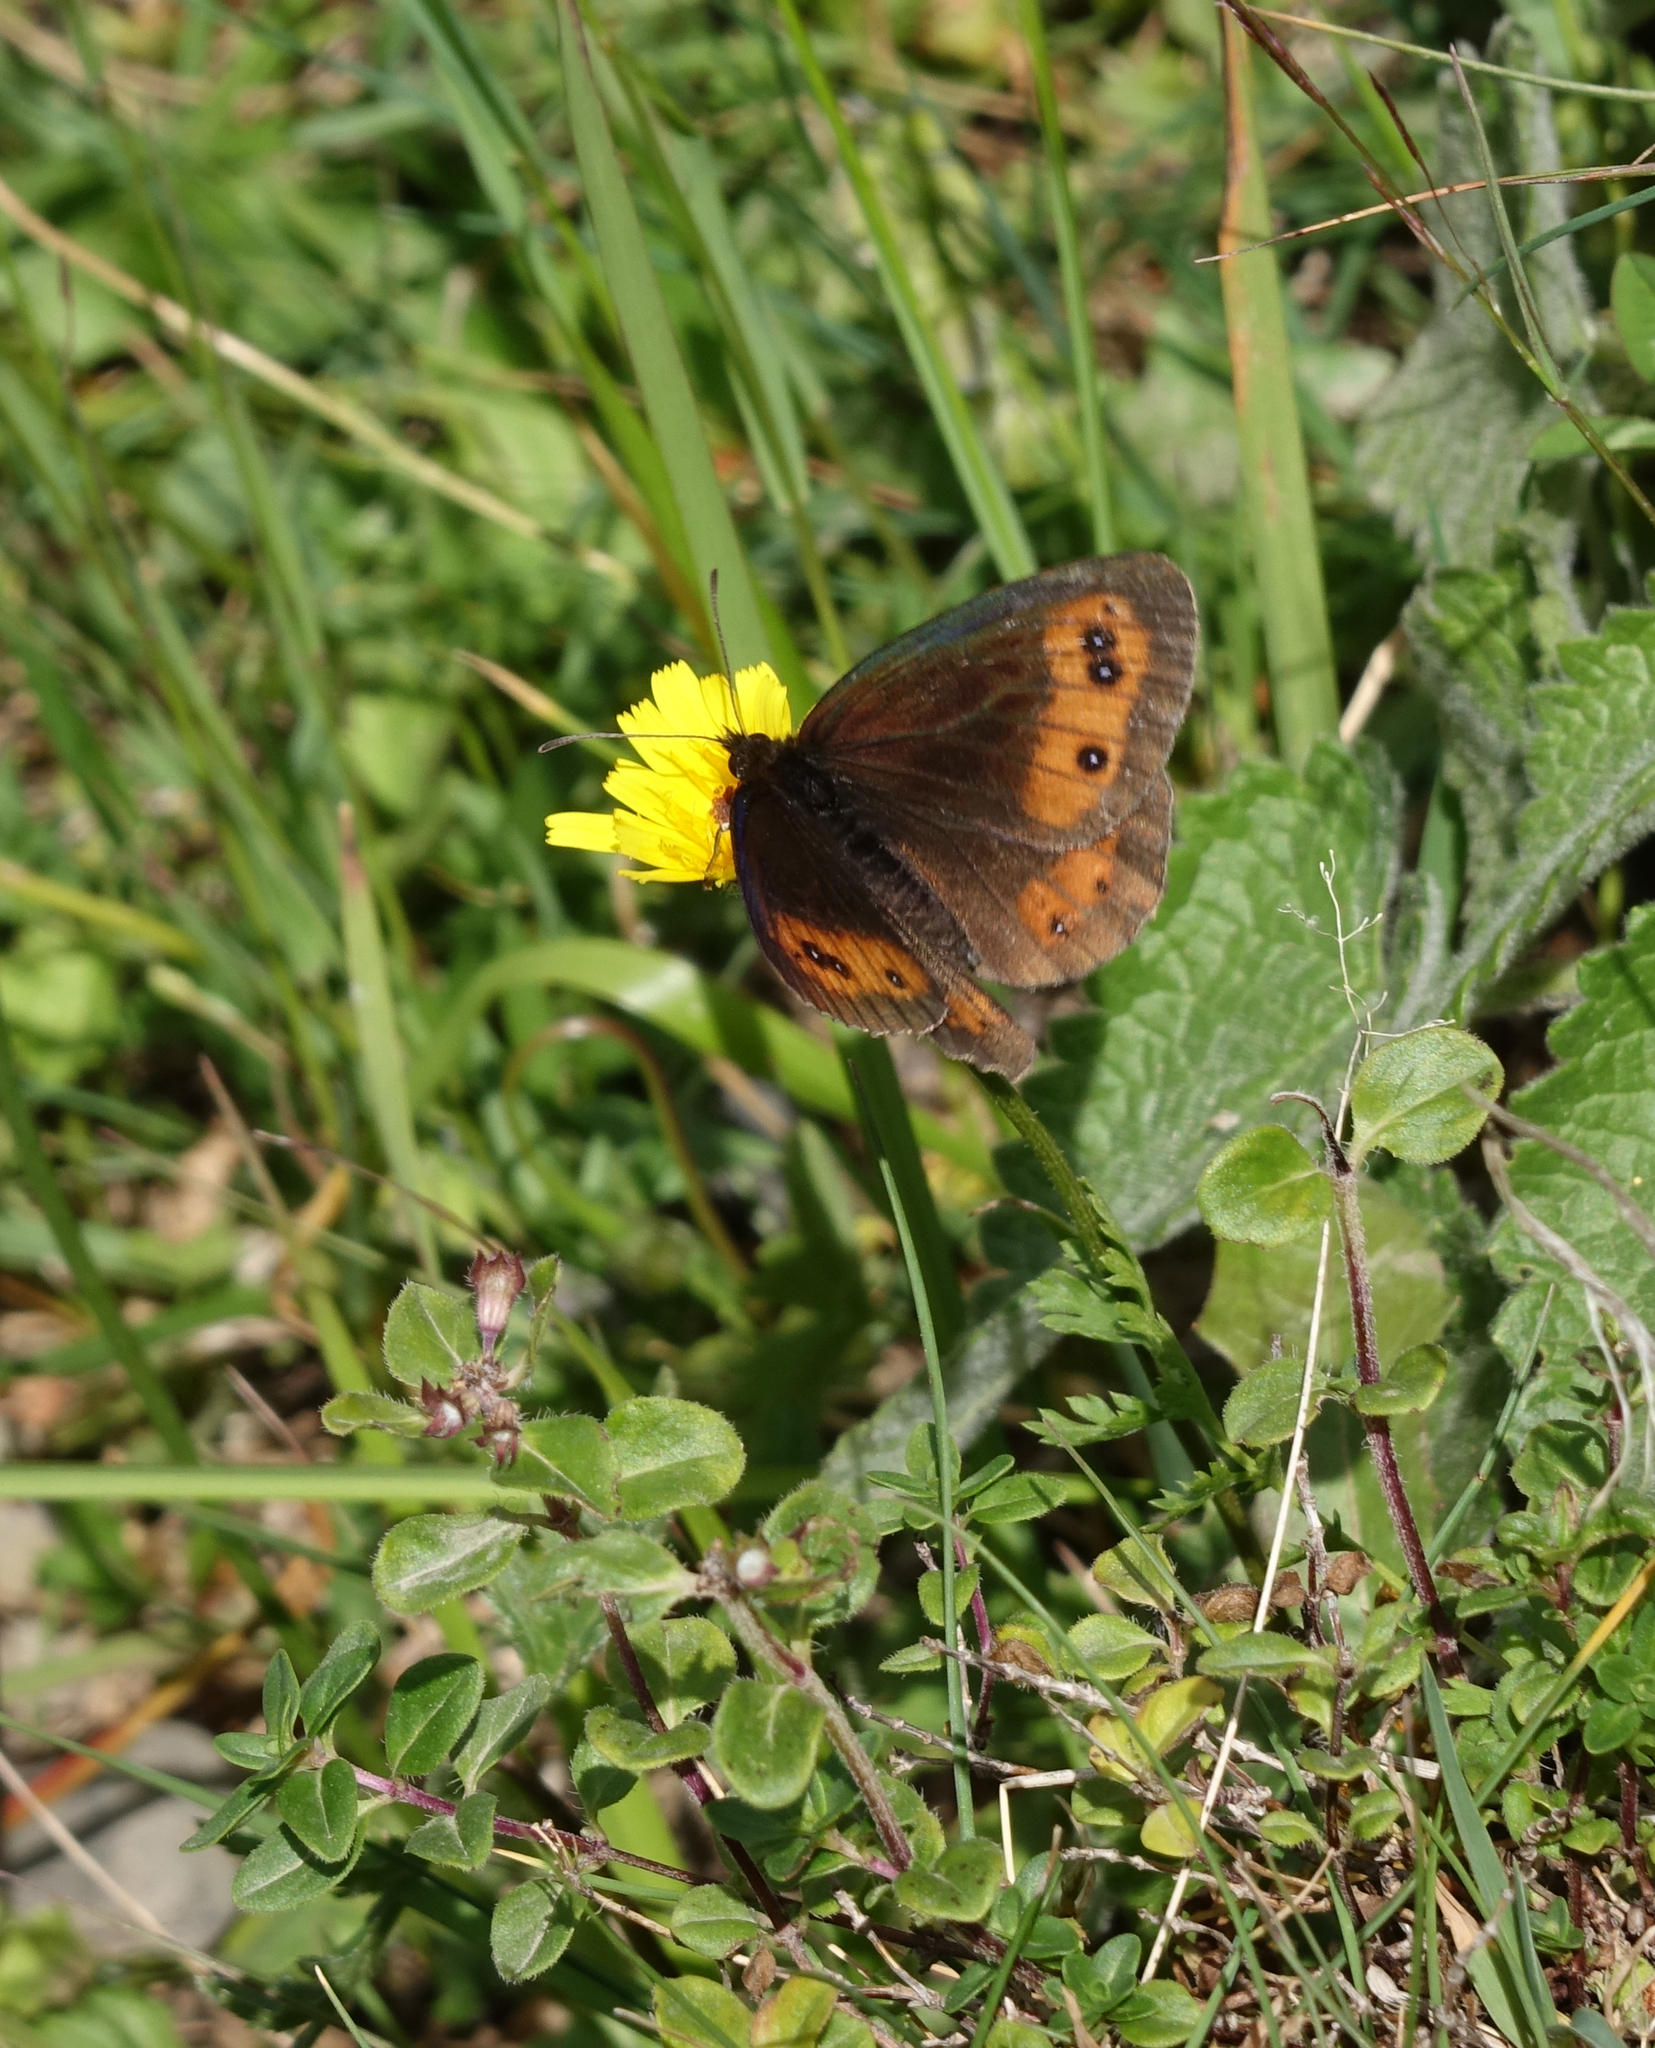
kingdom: Animalia
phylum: Arthropoda
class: Insecta
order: Lepidoptera
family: Nymphalidae
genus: Erebia
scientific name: Erebia aethiops
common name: Scotch argus
